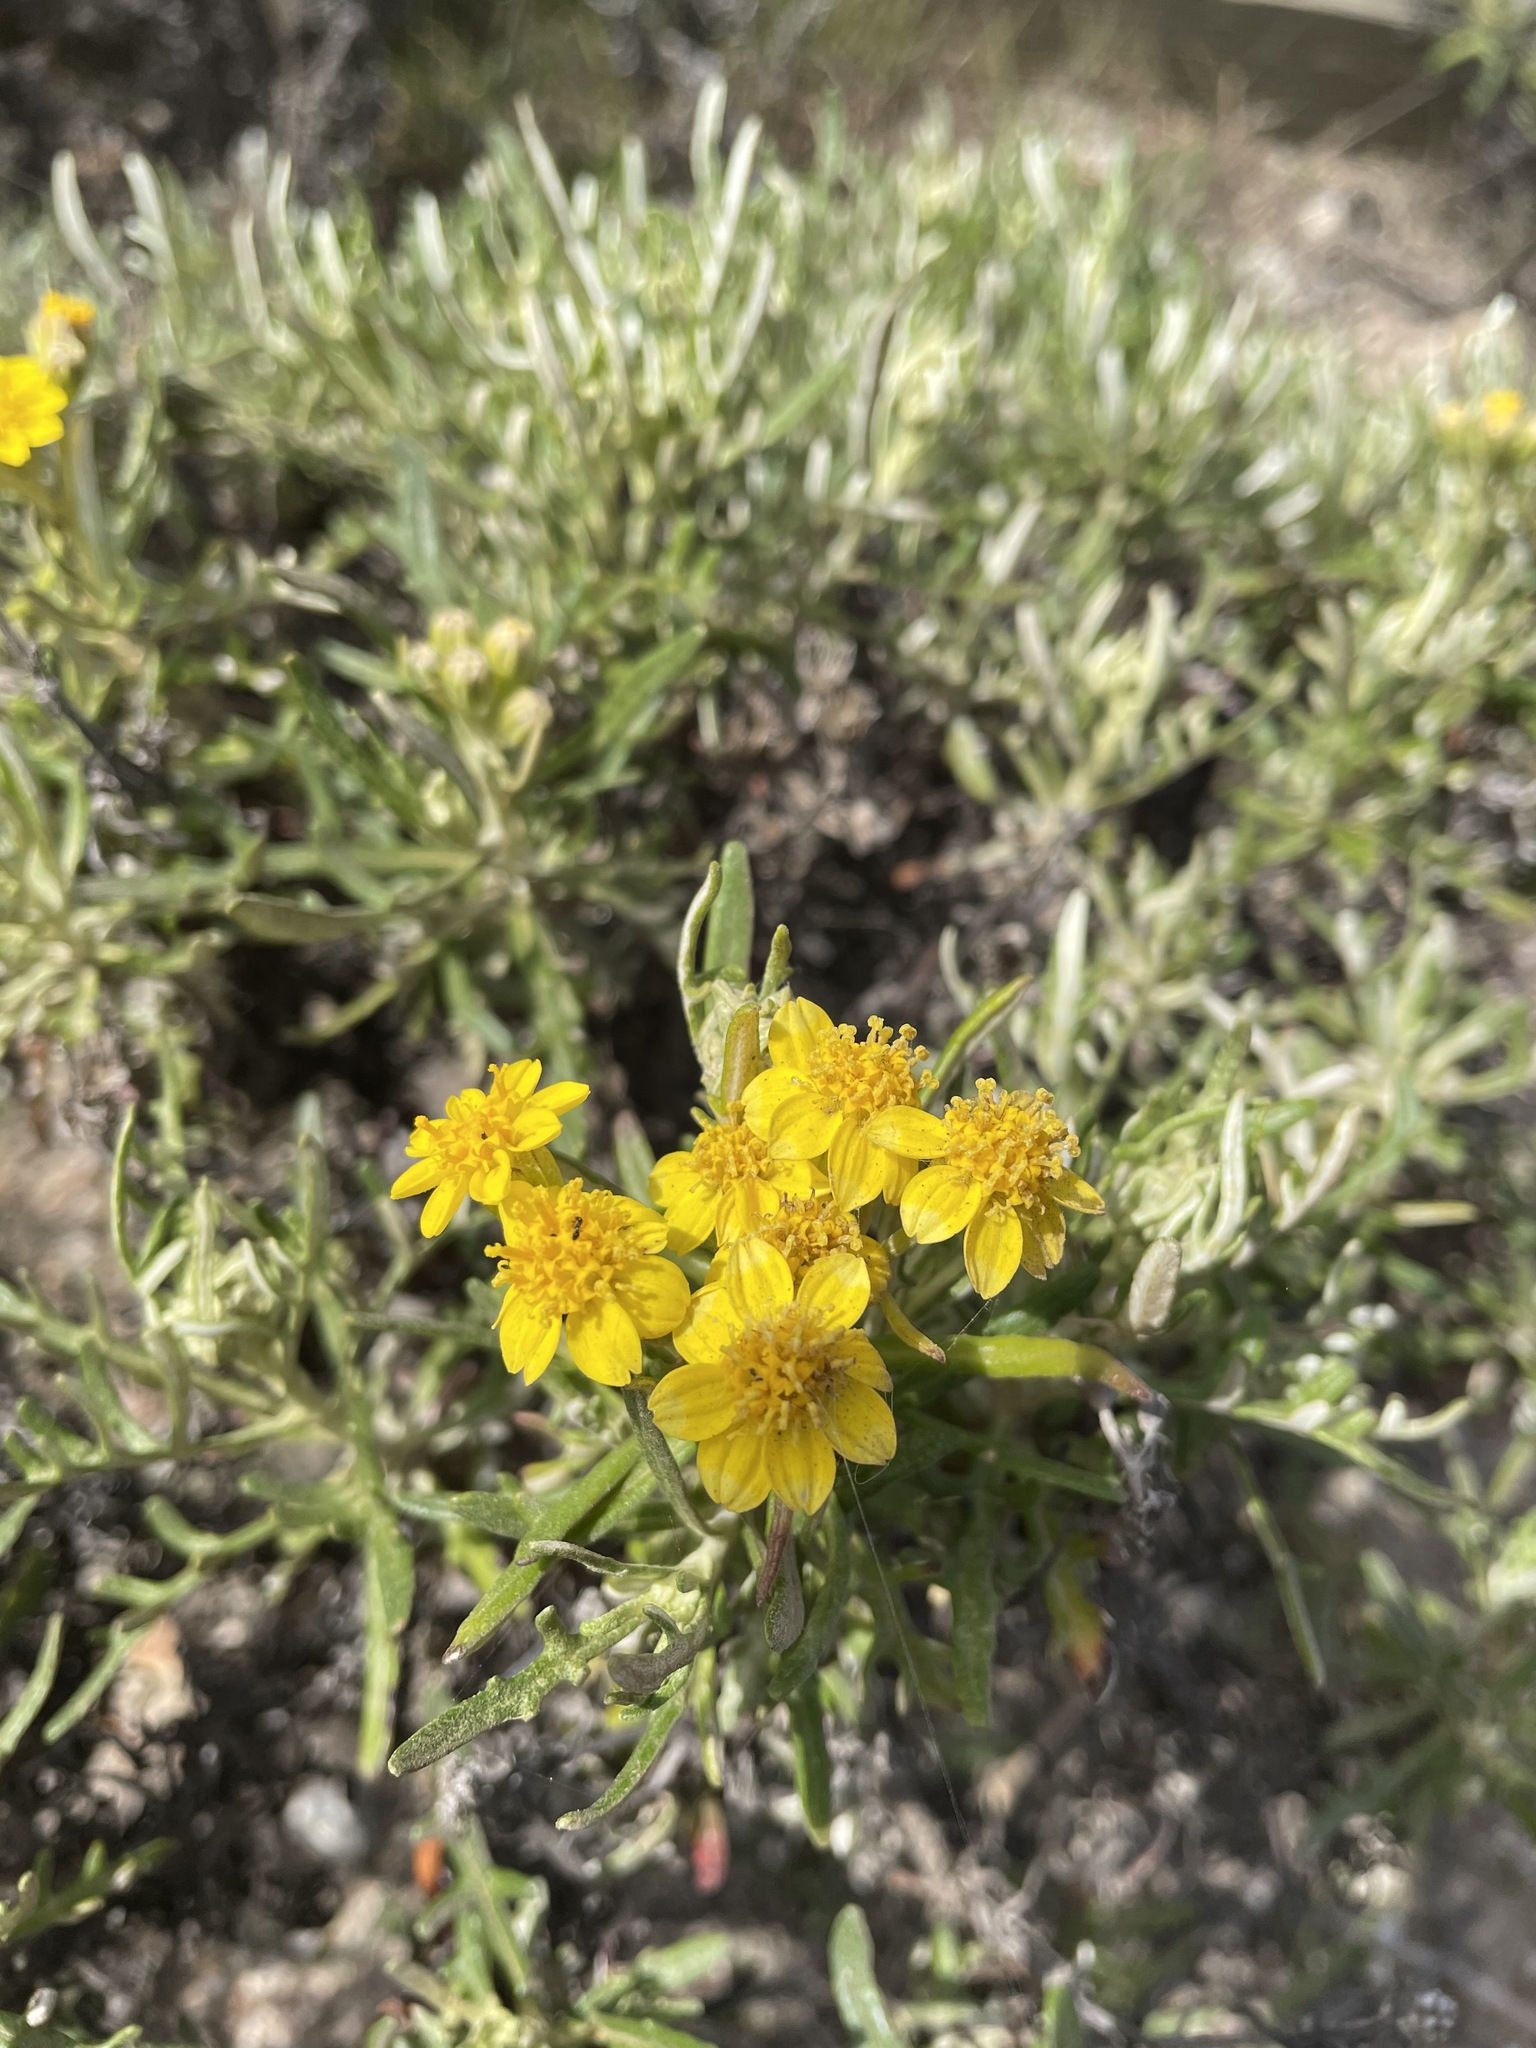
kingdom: Plantae
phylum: Tracheophyta
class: Magnoliopsida
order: Asterales
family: Asteraceae
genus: Eriophyllum
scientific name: Eriophyllum staechadifolium
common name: Lizardtail
